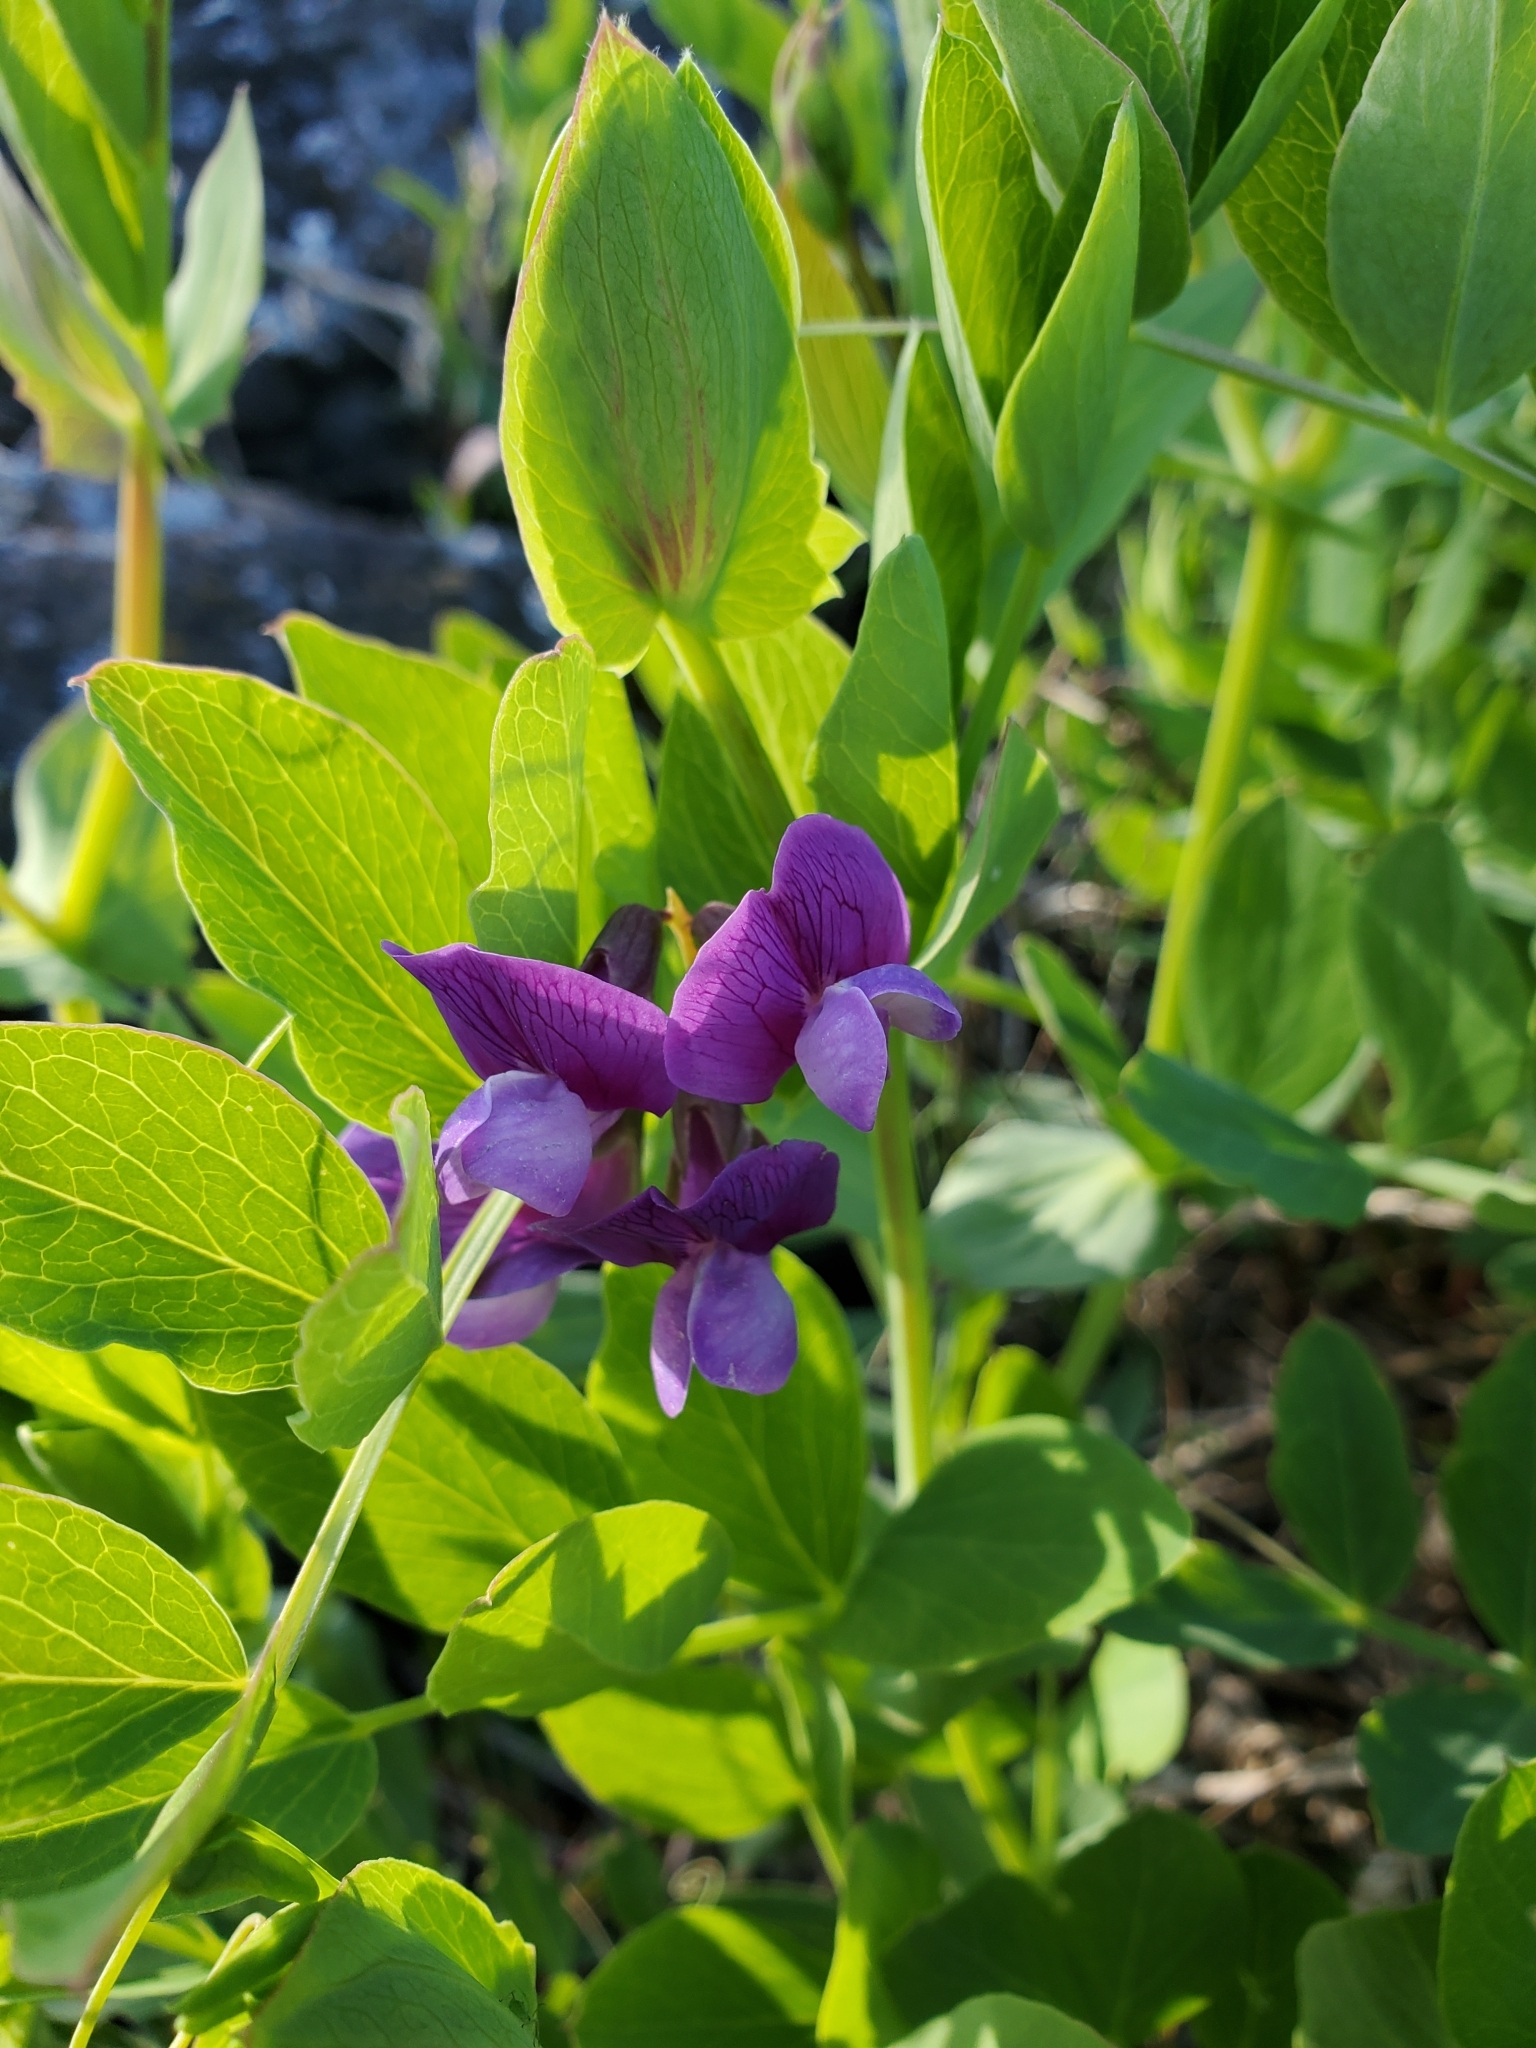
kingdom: Plantae
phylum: Tracheophyta
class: Magnoliopsida
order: Fabales
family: Fabaceae
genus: Lathyrus
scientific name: Lathyrus japonicus
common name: Sea pea
